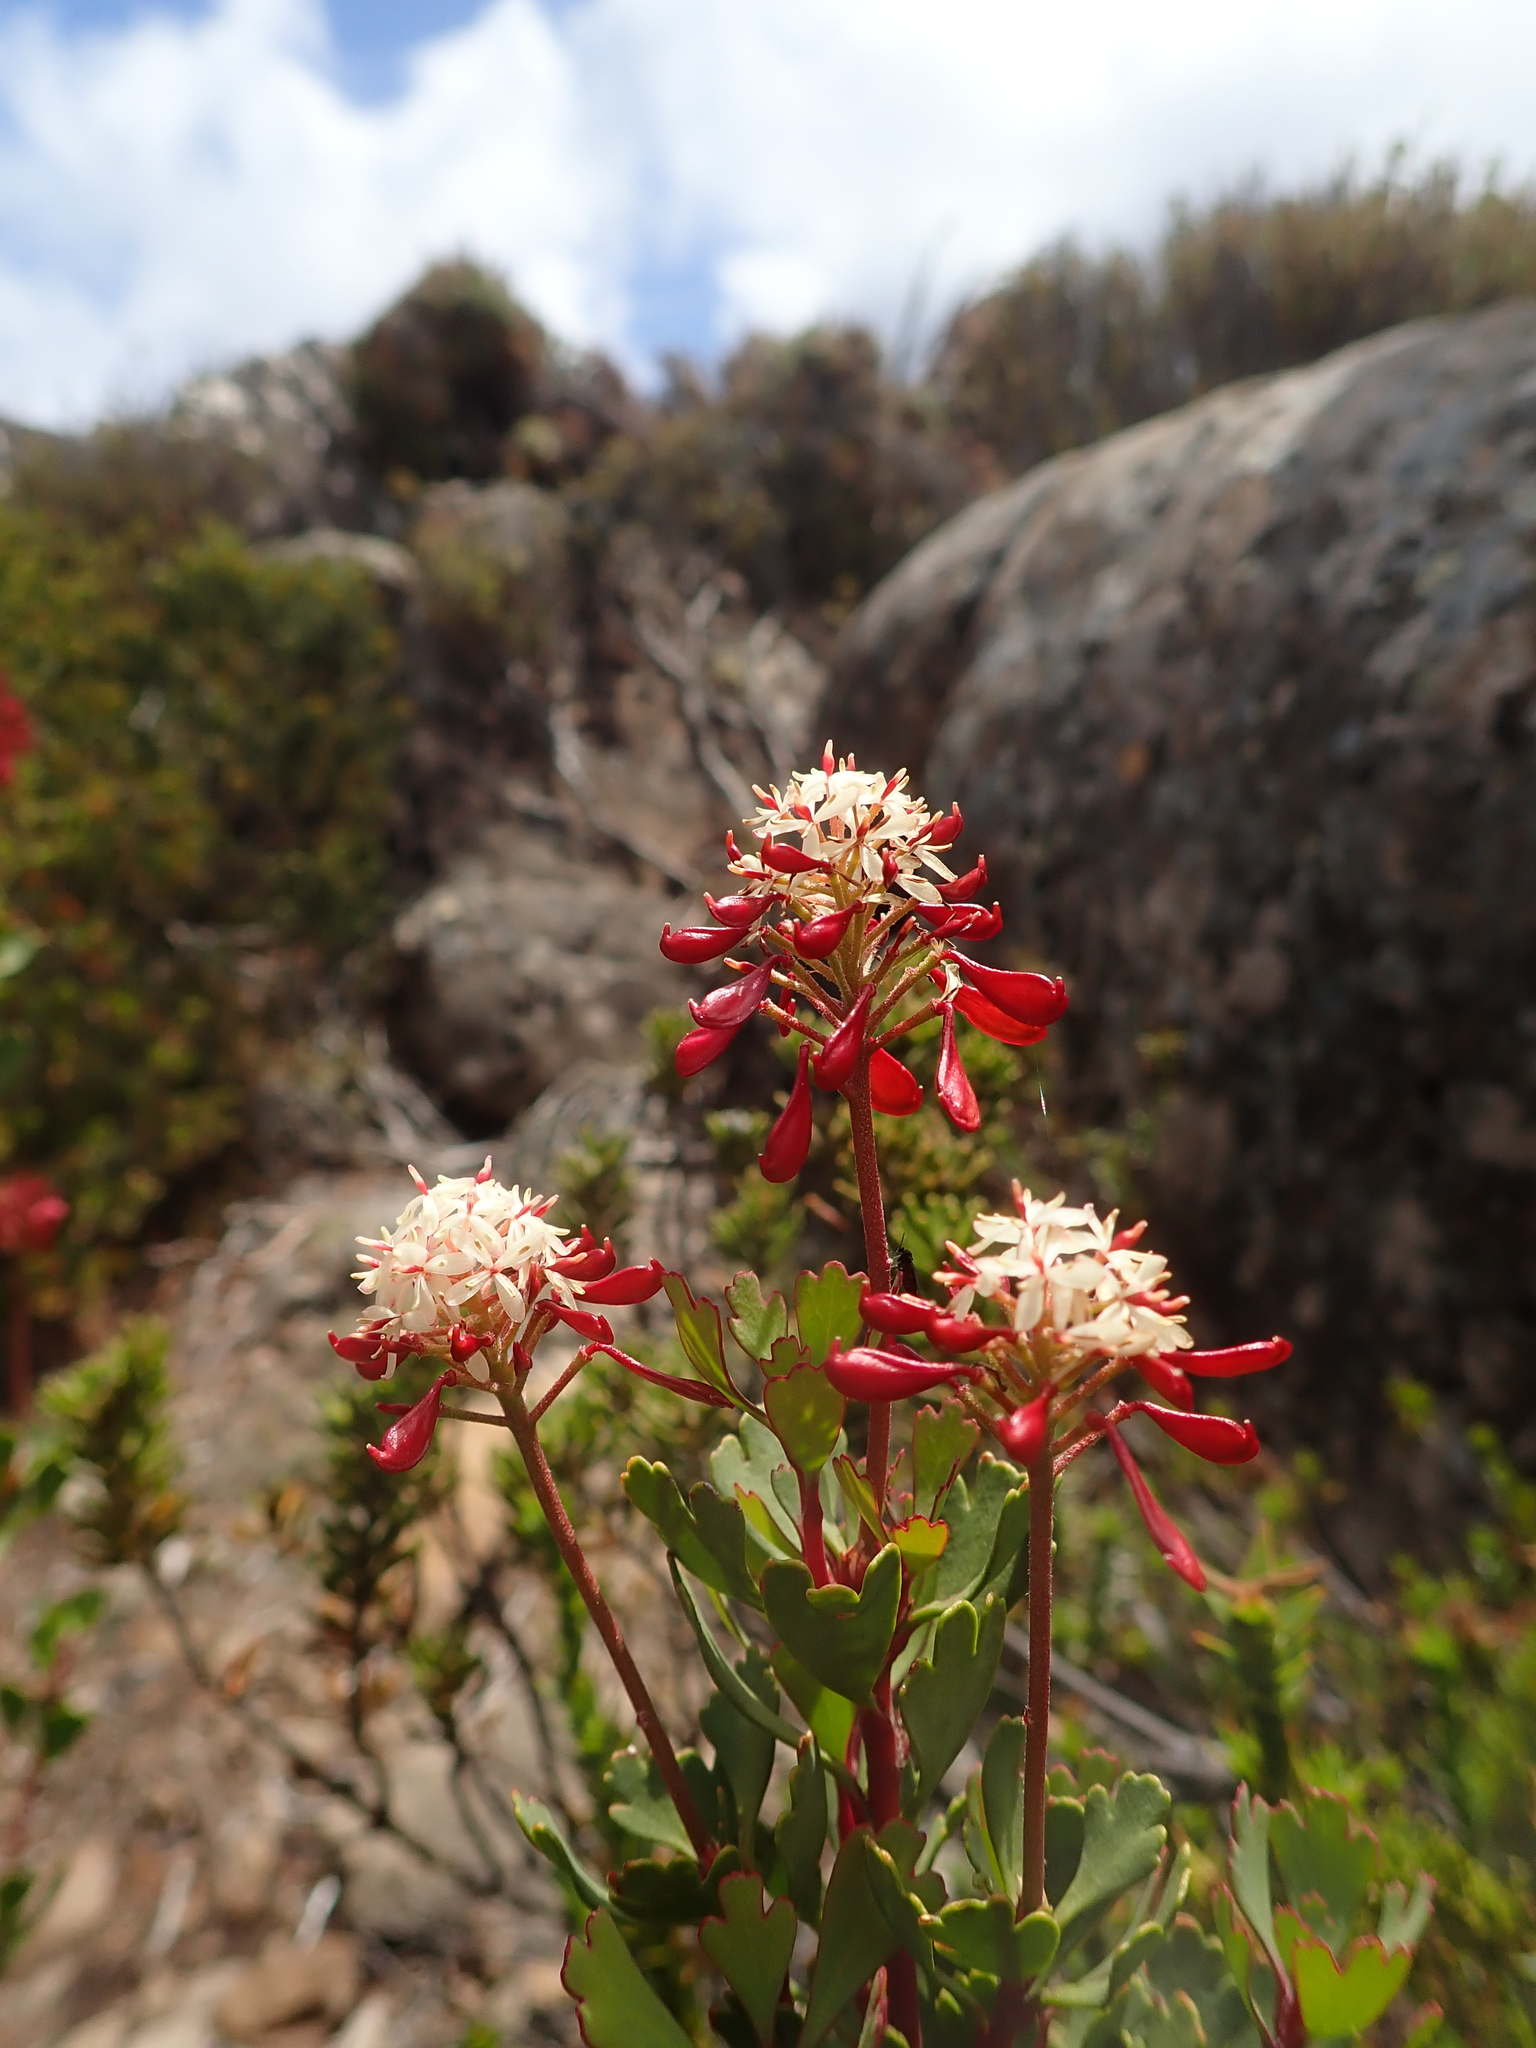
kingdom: Plantae
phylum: Tracheophyta
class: Magnoliopsida
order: Proteales
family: Proteaceae
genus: Bellendena
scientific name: Bellendena montana
